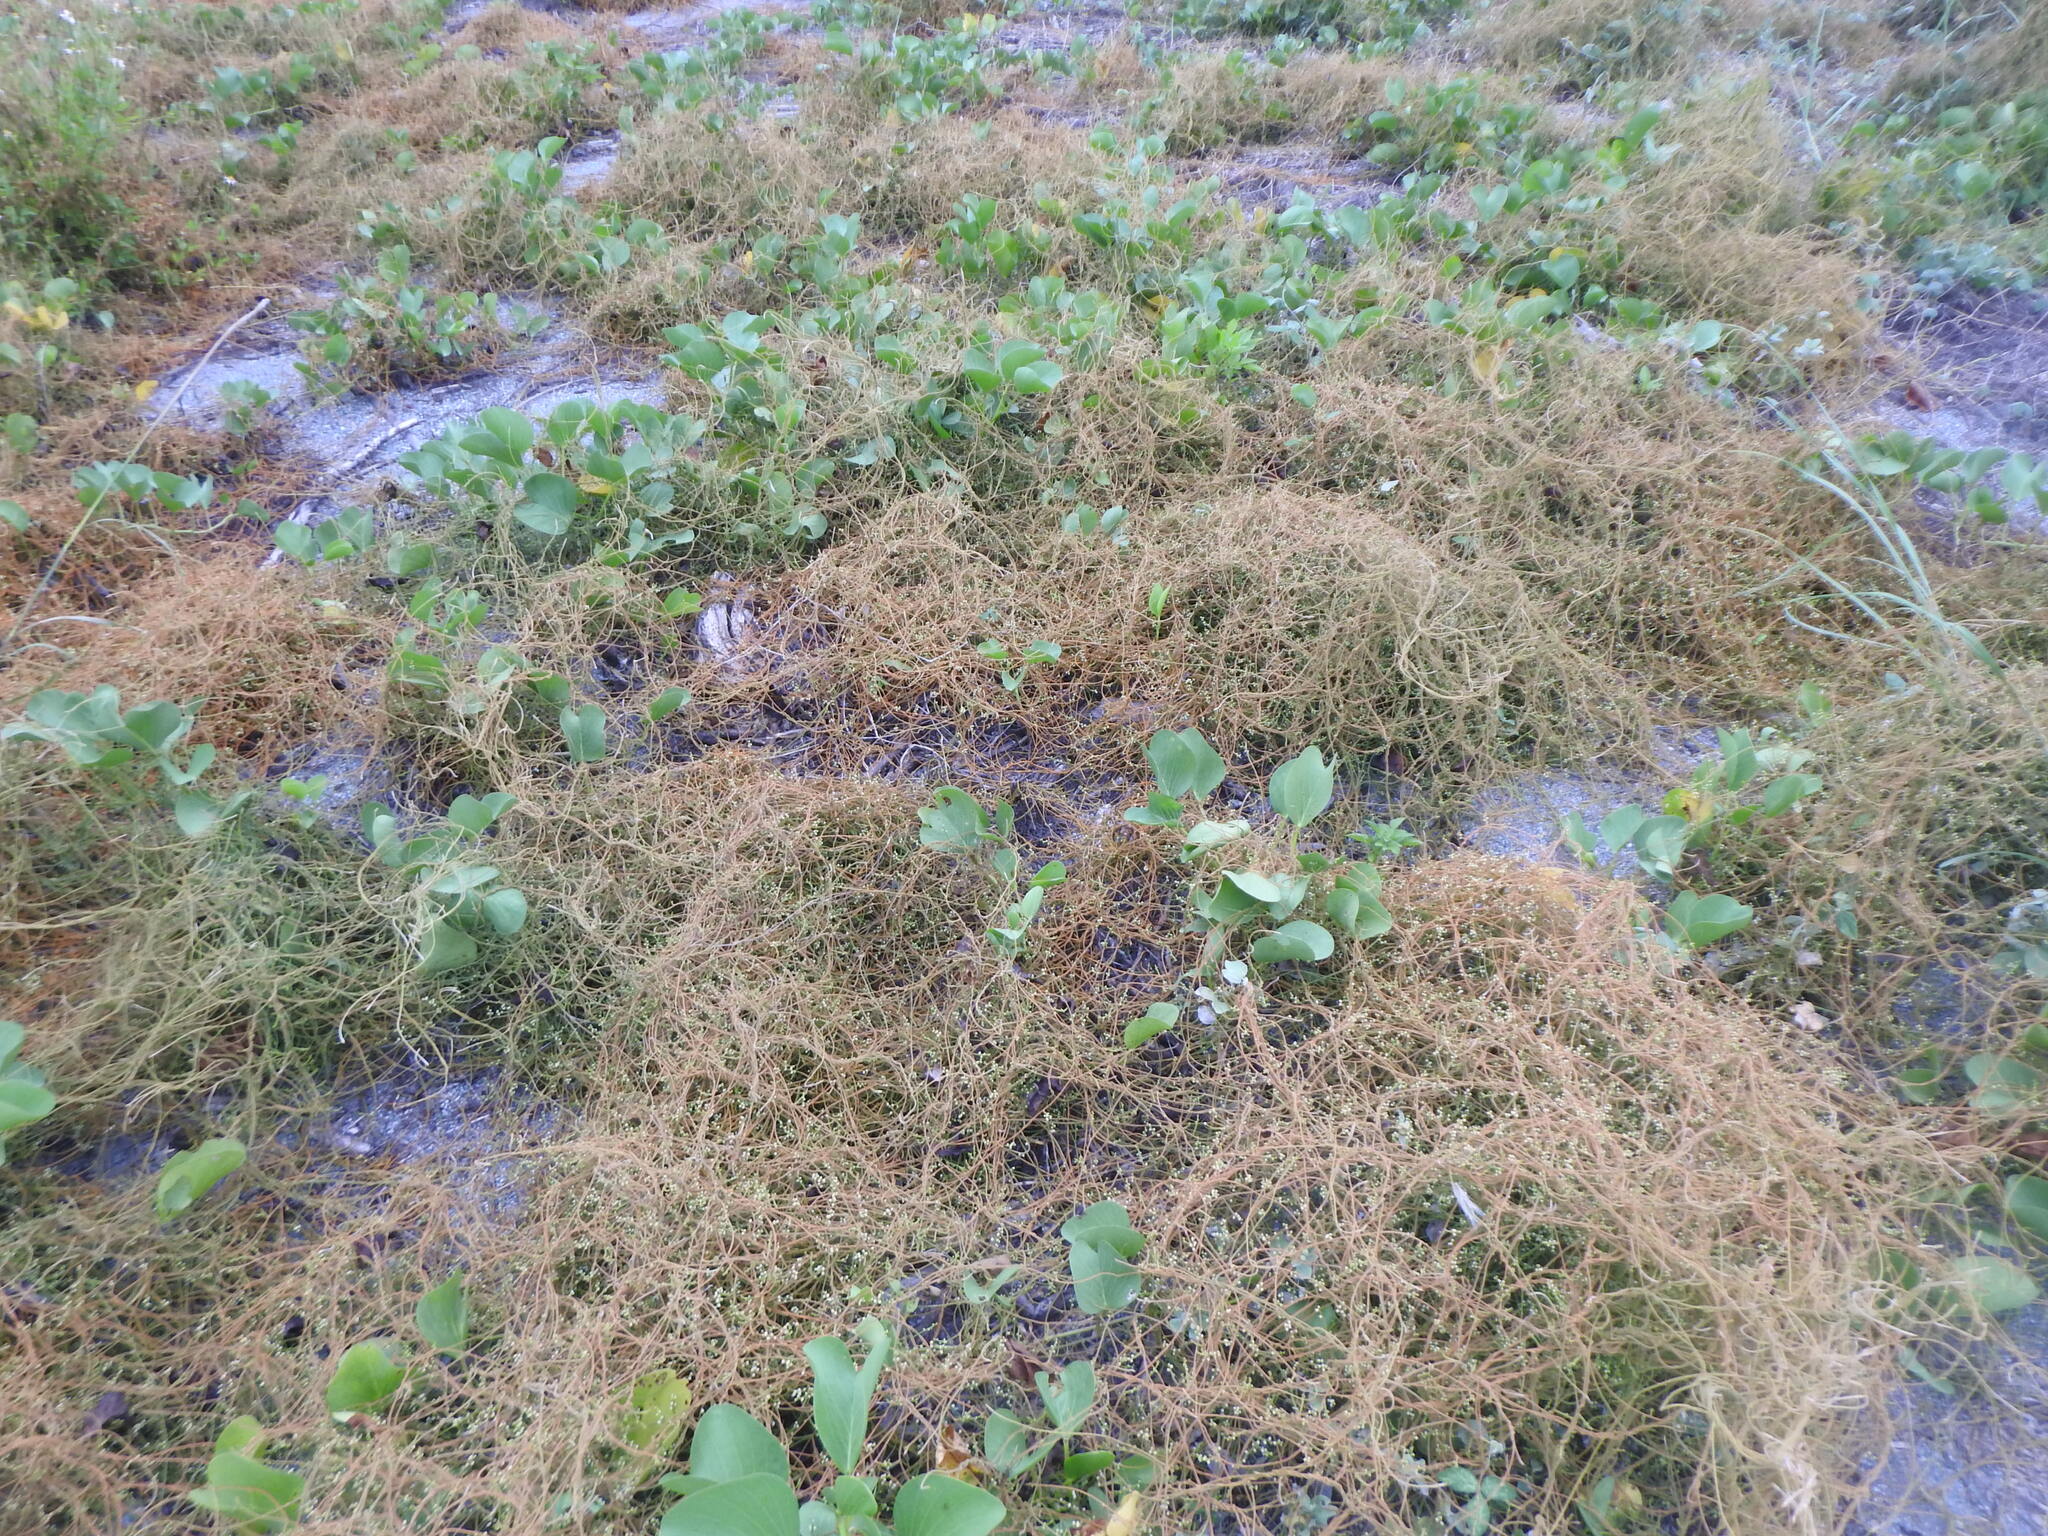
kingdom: Plantae
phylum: Tracheophyta
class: Magnoliopsida
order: Laurales
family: Lauraceae
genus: Cassytha
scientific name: Cassytha filiformis
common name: Dodder-laurel
